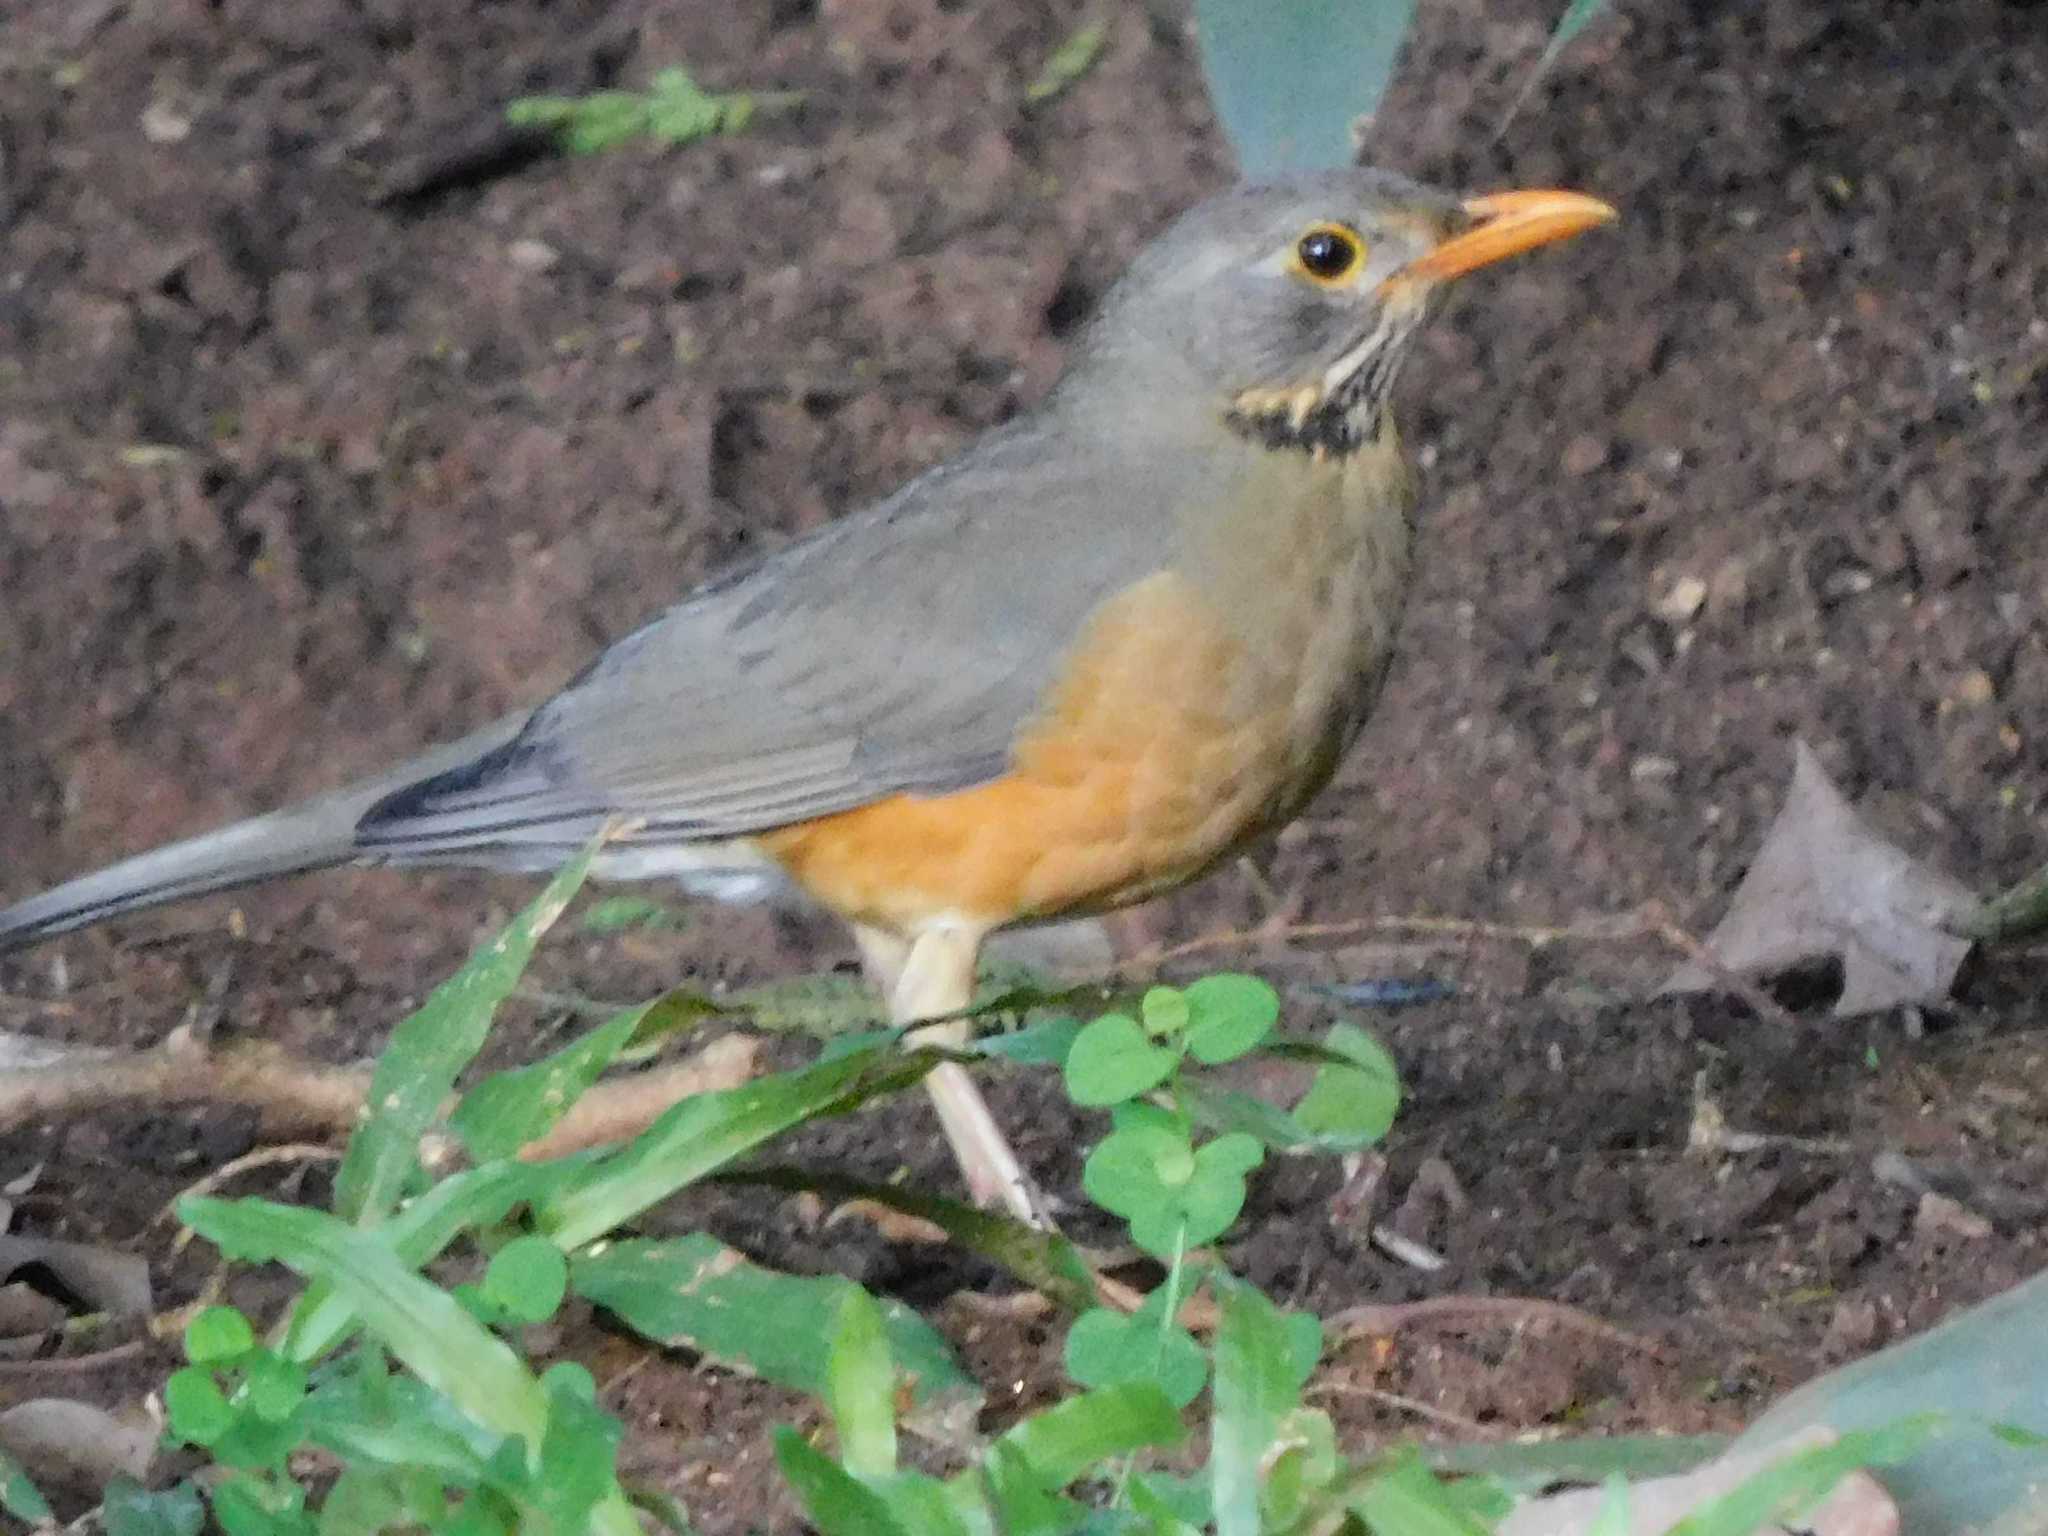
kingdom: Animalia
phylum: Chordata
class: Aves
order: Passeriformes
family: Turdidae
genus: Turdus
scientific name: Turdus libonyana
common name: Kurrichane thrush
